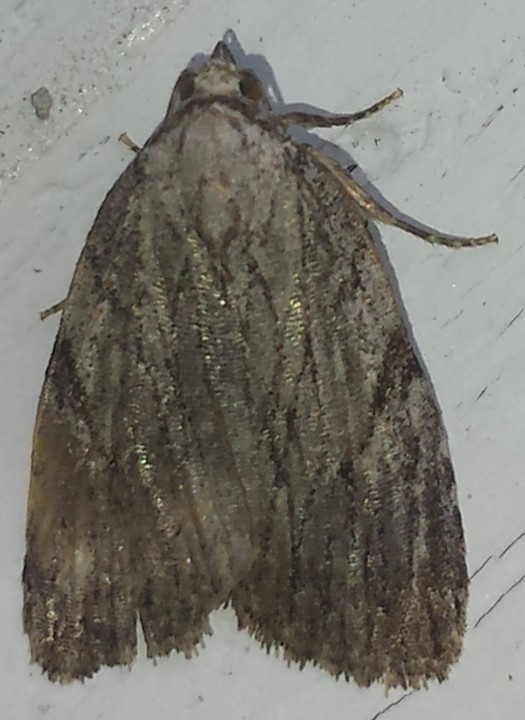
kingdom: Animalia
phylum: Arthropoda
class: Insecta
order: Lepidoptera
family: Noctuidae
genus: Balsa
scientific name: Balsa tristrigella
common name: Three-lined balsa moth
